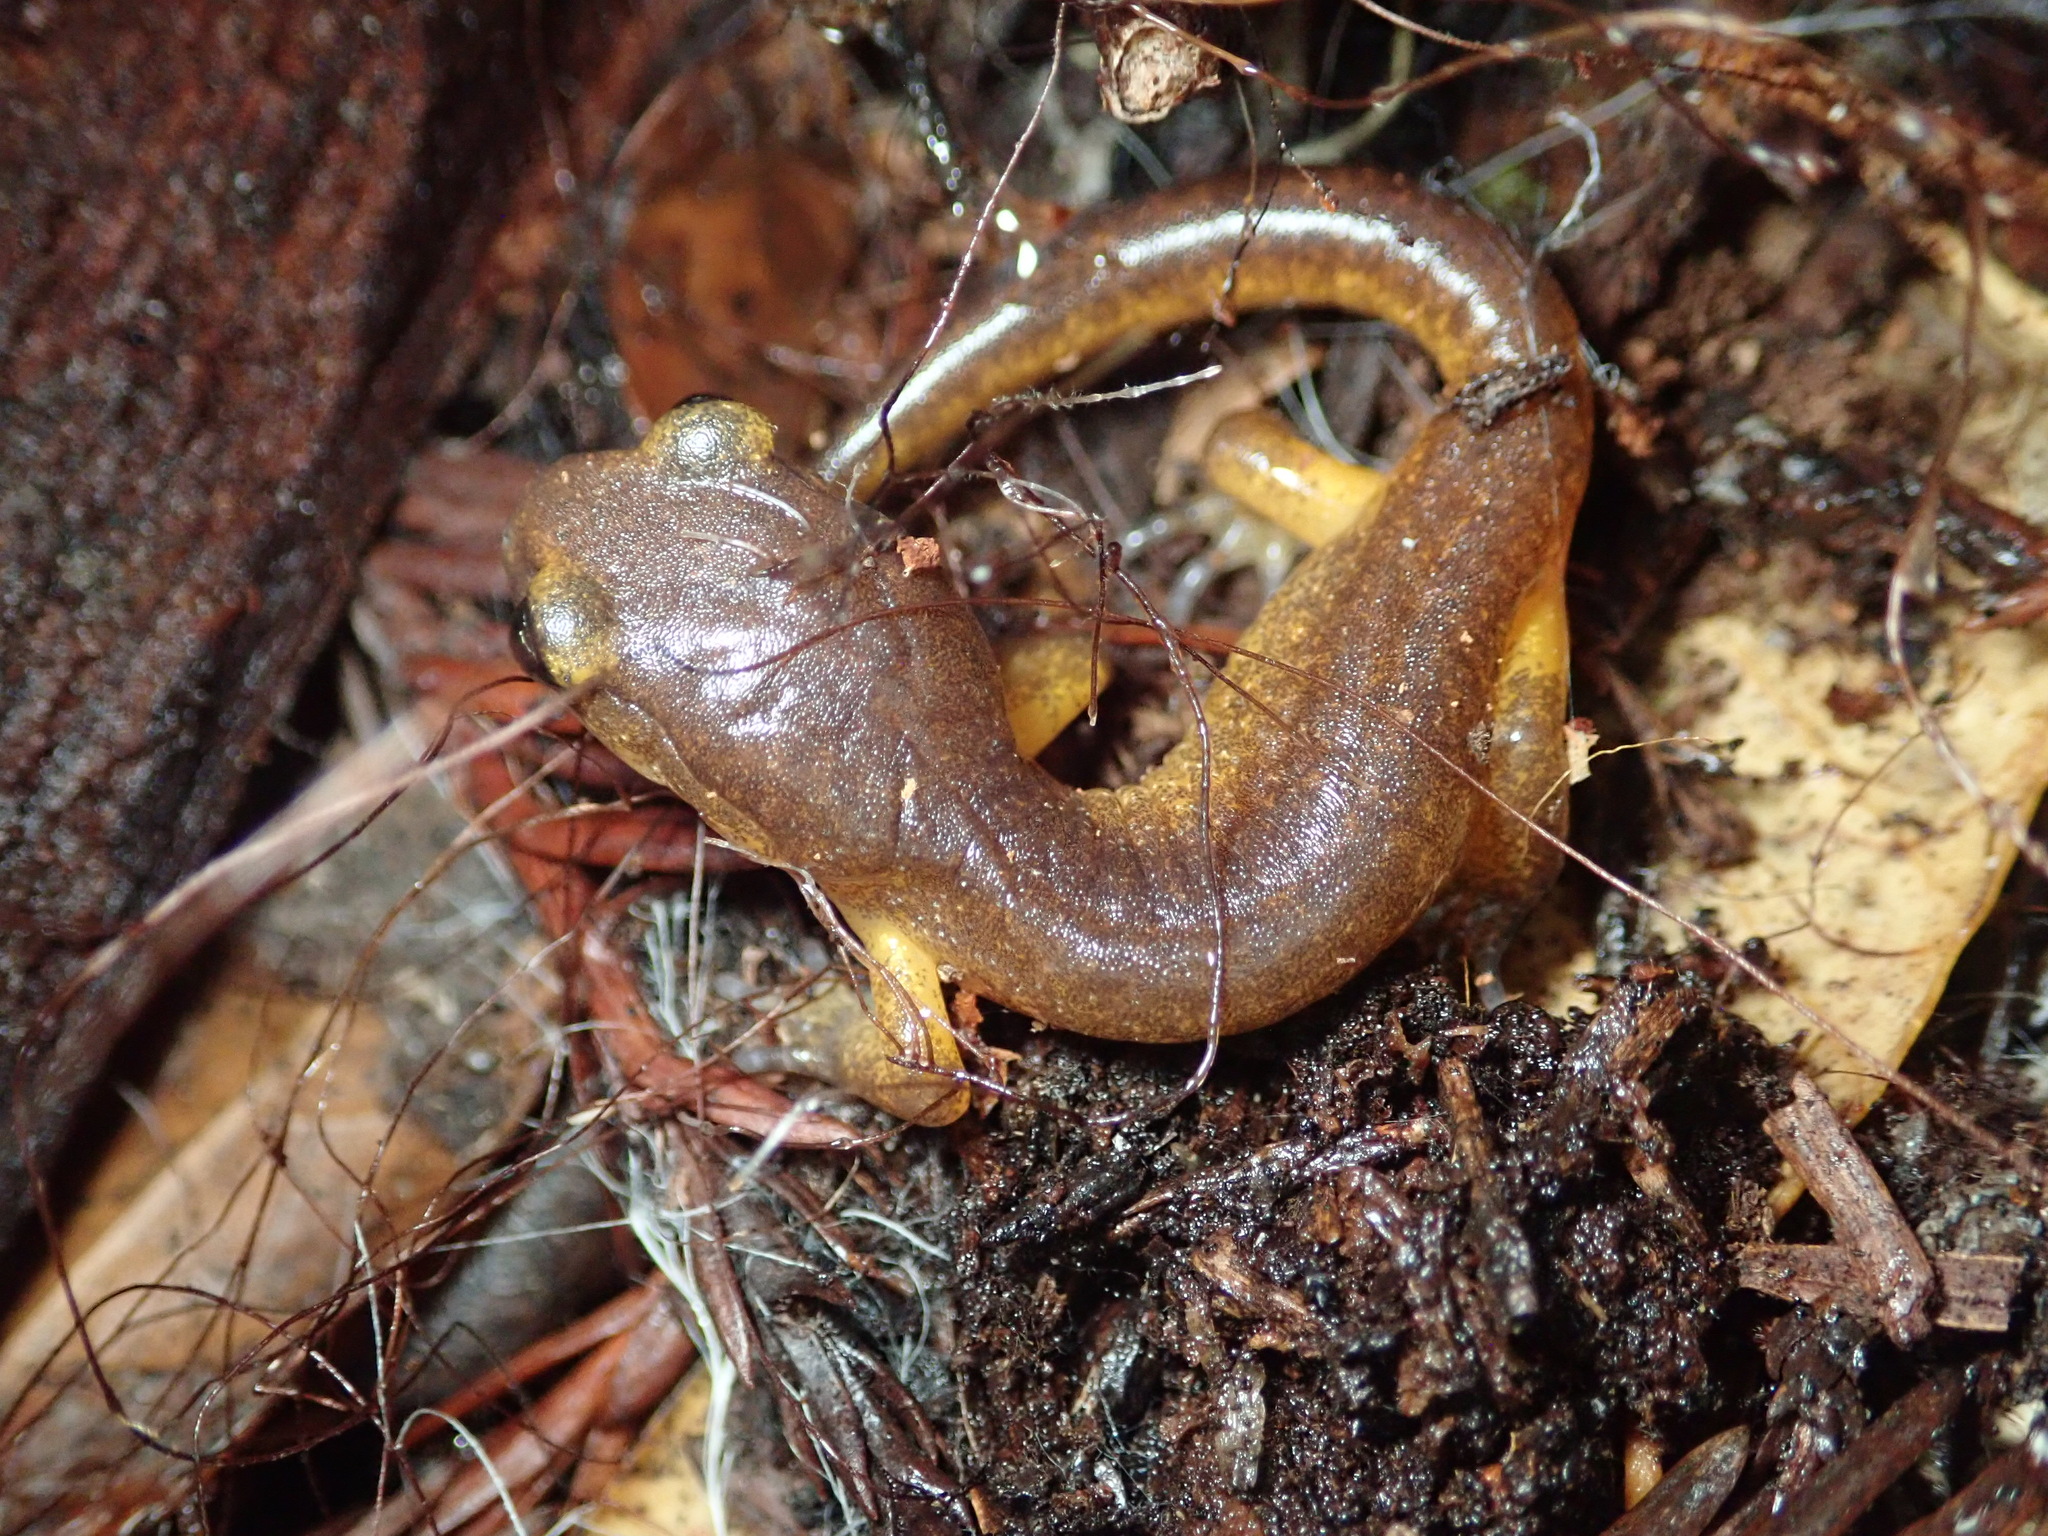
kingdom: Animalia
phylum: Chordata
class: Amphibia
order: Caudata
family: Plethodontidae
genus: Ensatina
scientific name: Ensatina eschscholtzii
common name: Ensatina
